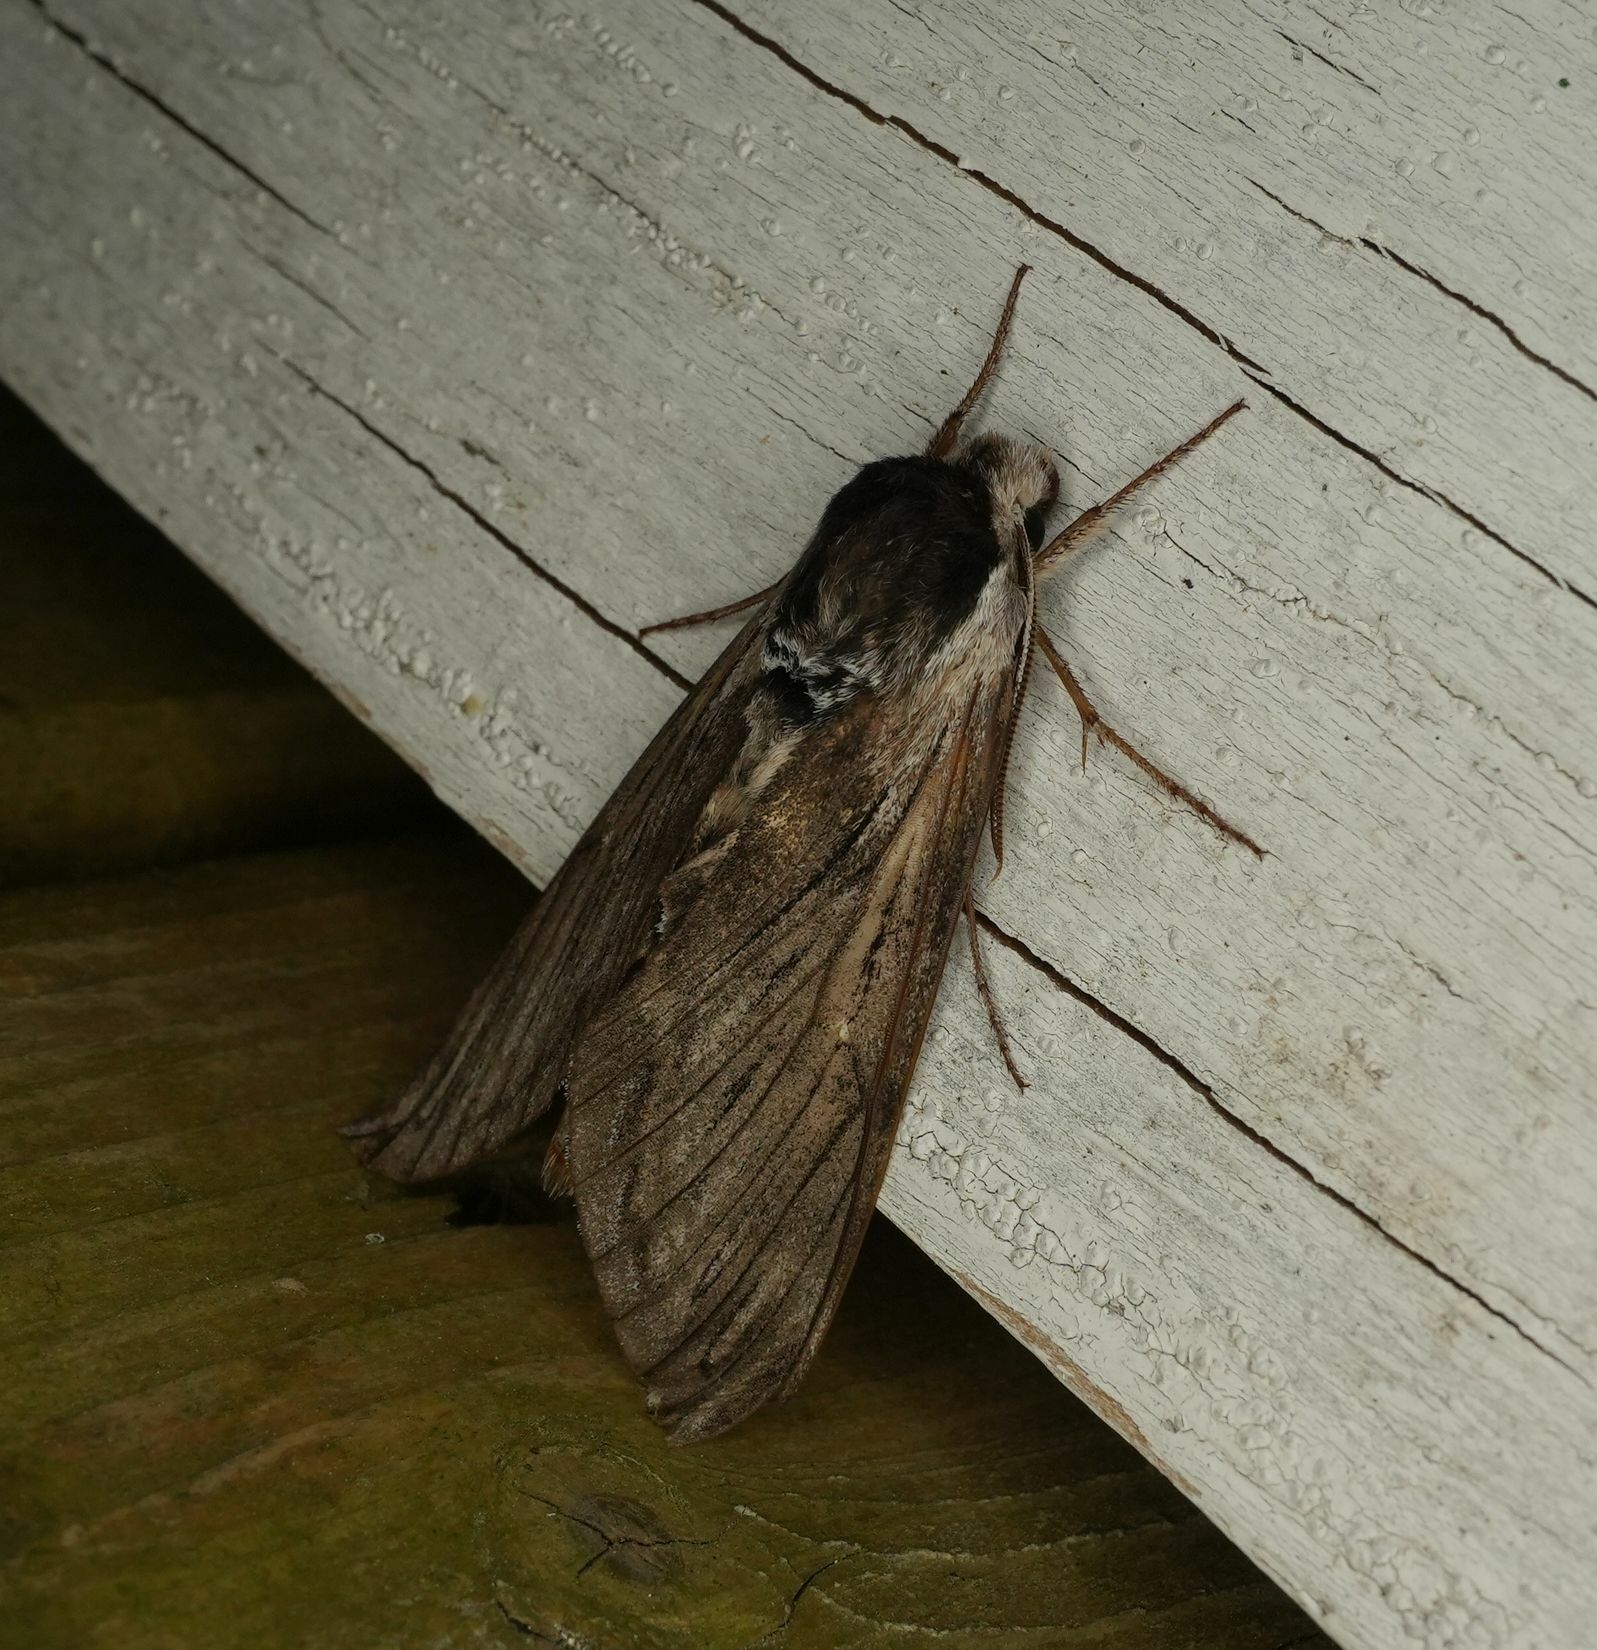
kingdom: Animalia
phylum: Arthropoda
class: Insecta
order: Lepidoptera
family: Sphingidae
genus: Sphinx
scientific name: Sphinx poecila
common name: Northern apple sphinx
